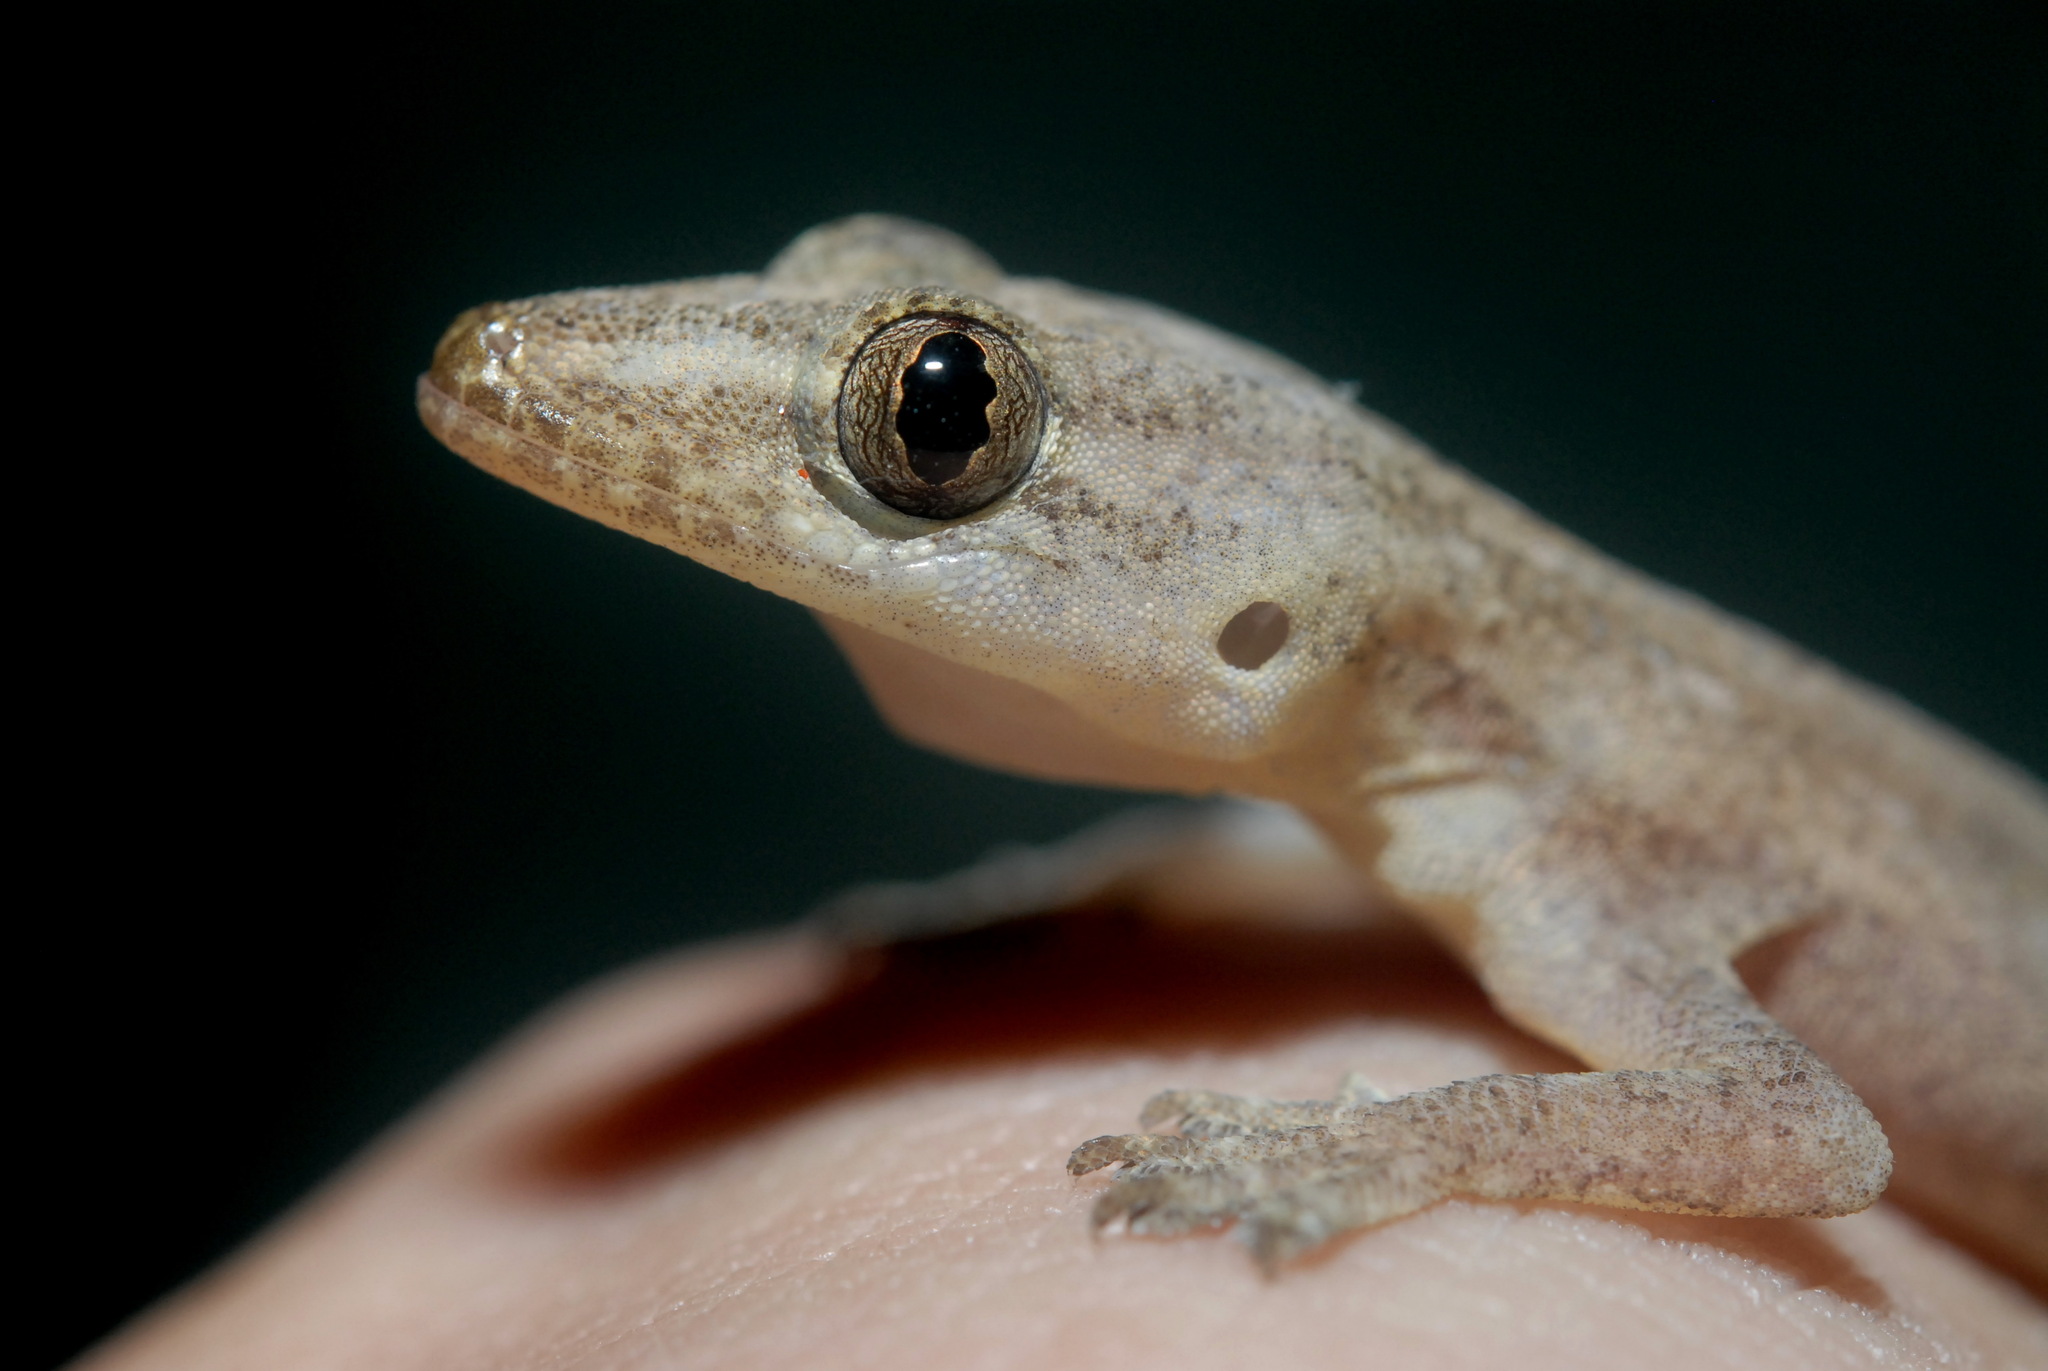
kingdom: Animalia
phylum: Chordata
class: Squamata
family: Gekkonidae
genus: Hemidactylus
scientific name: Hemidactylus frenatus
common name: Common house gecko
